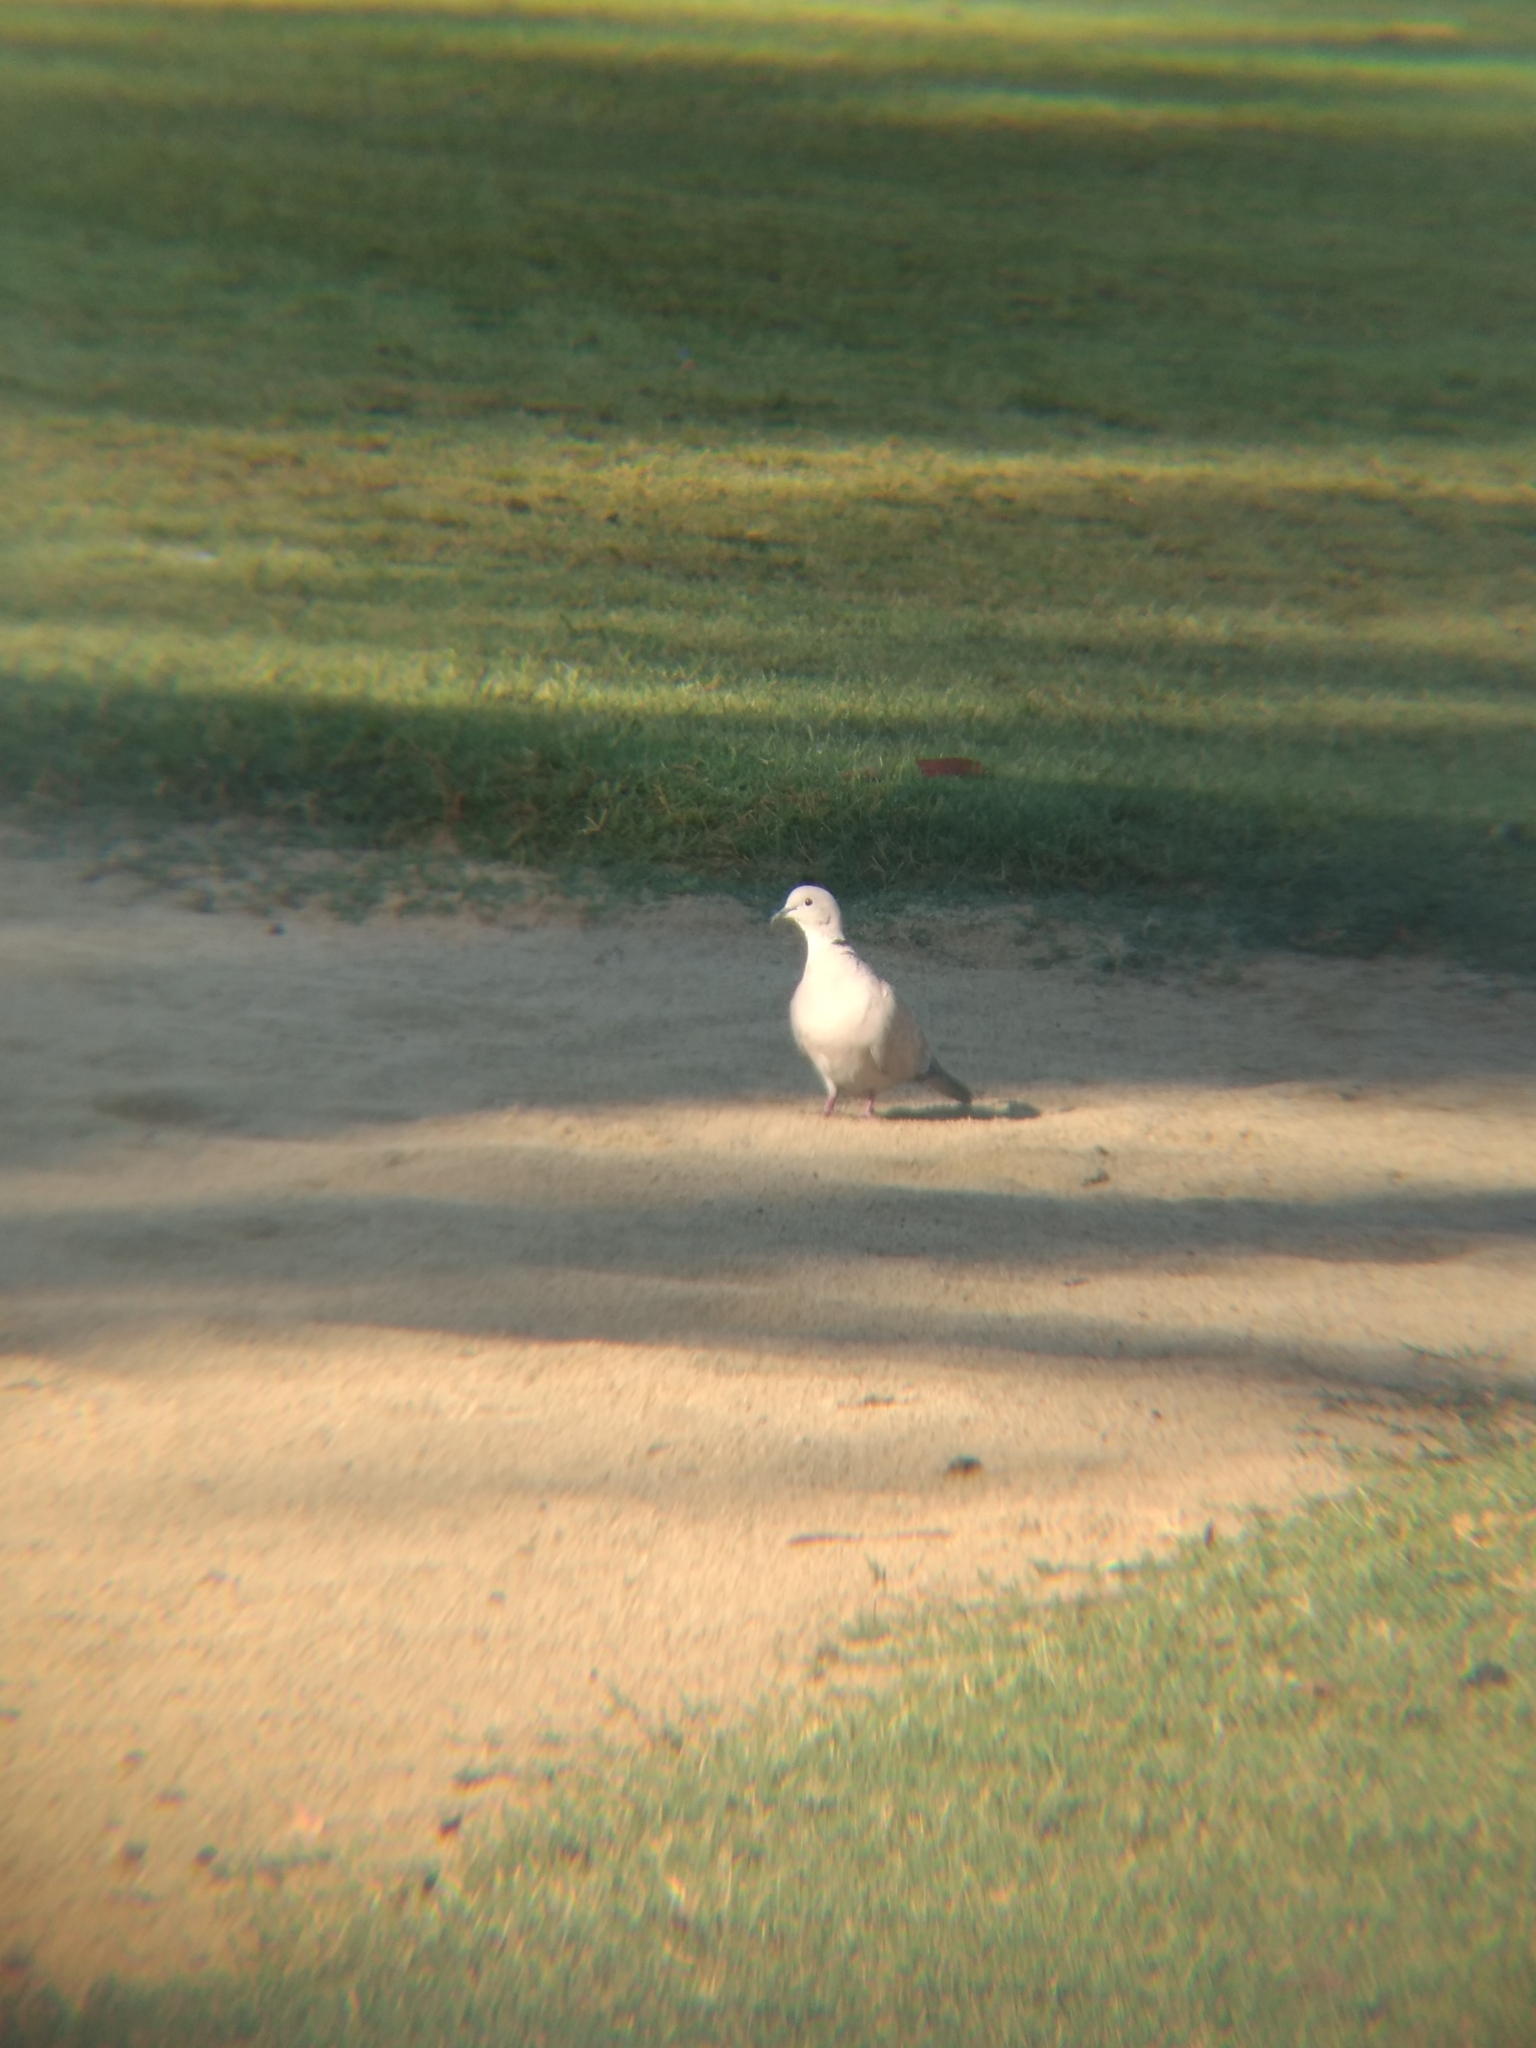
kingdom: Animalia
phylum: Chordata
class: Aves
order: Columbiformes
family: Columbidae
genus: Streptopelia
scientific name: Streptopelia decaocto
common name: Eurasian collared dove
